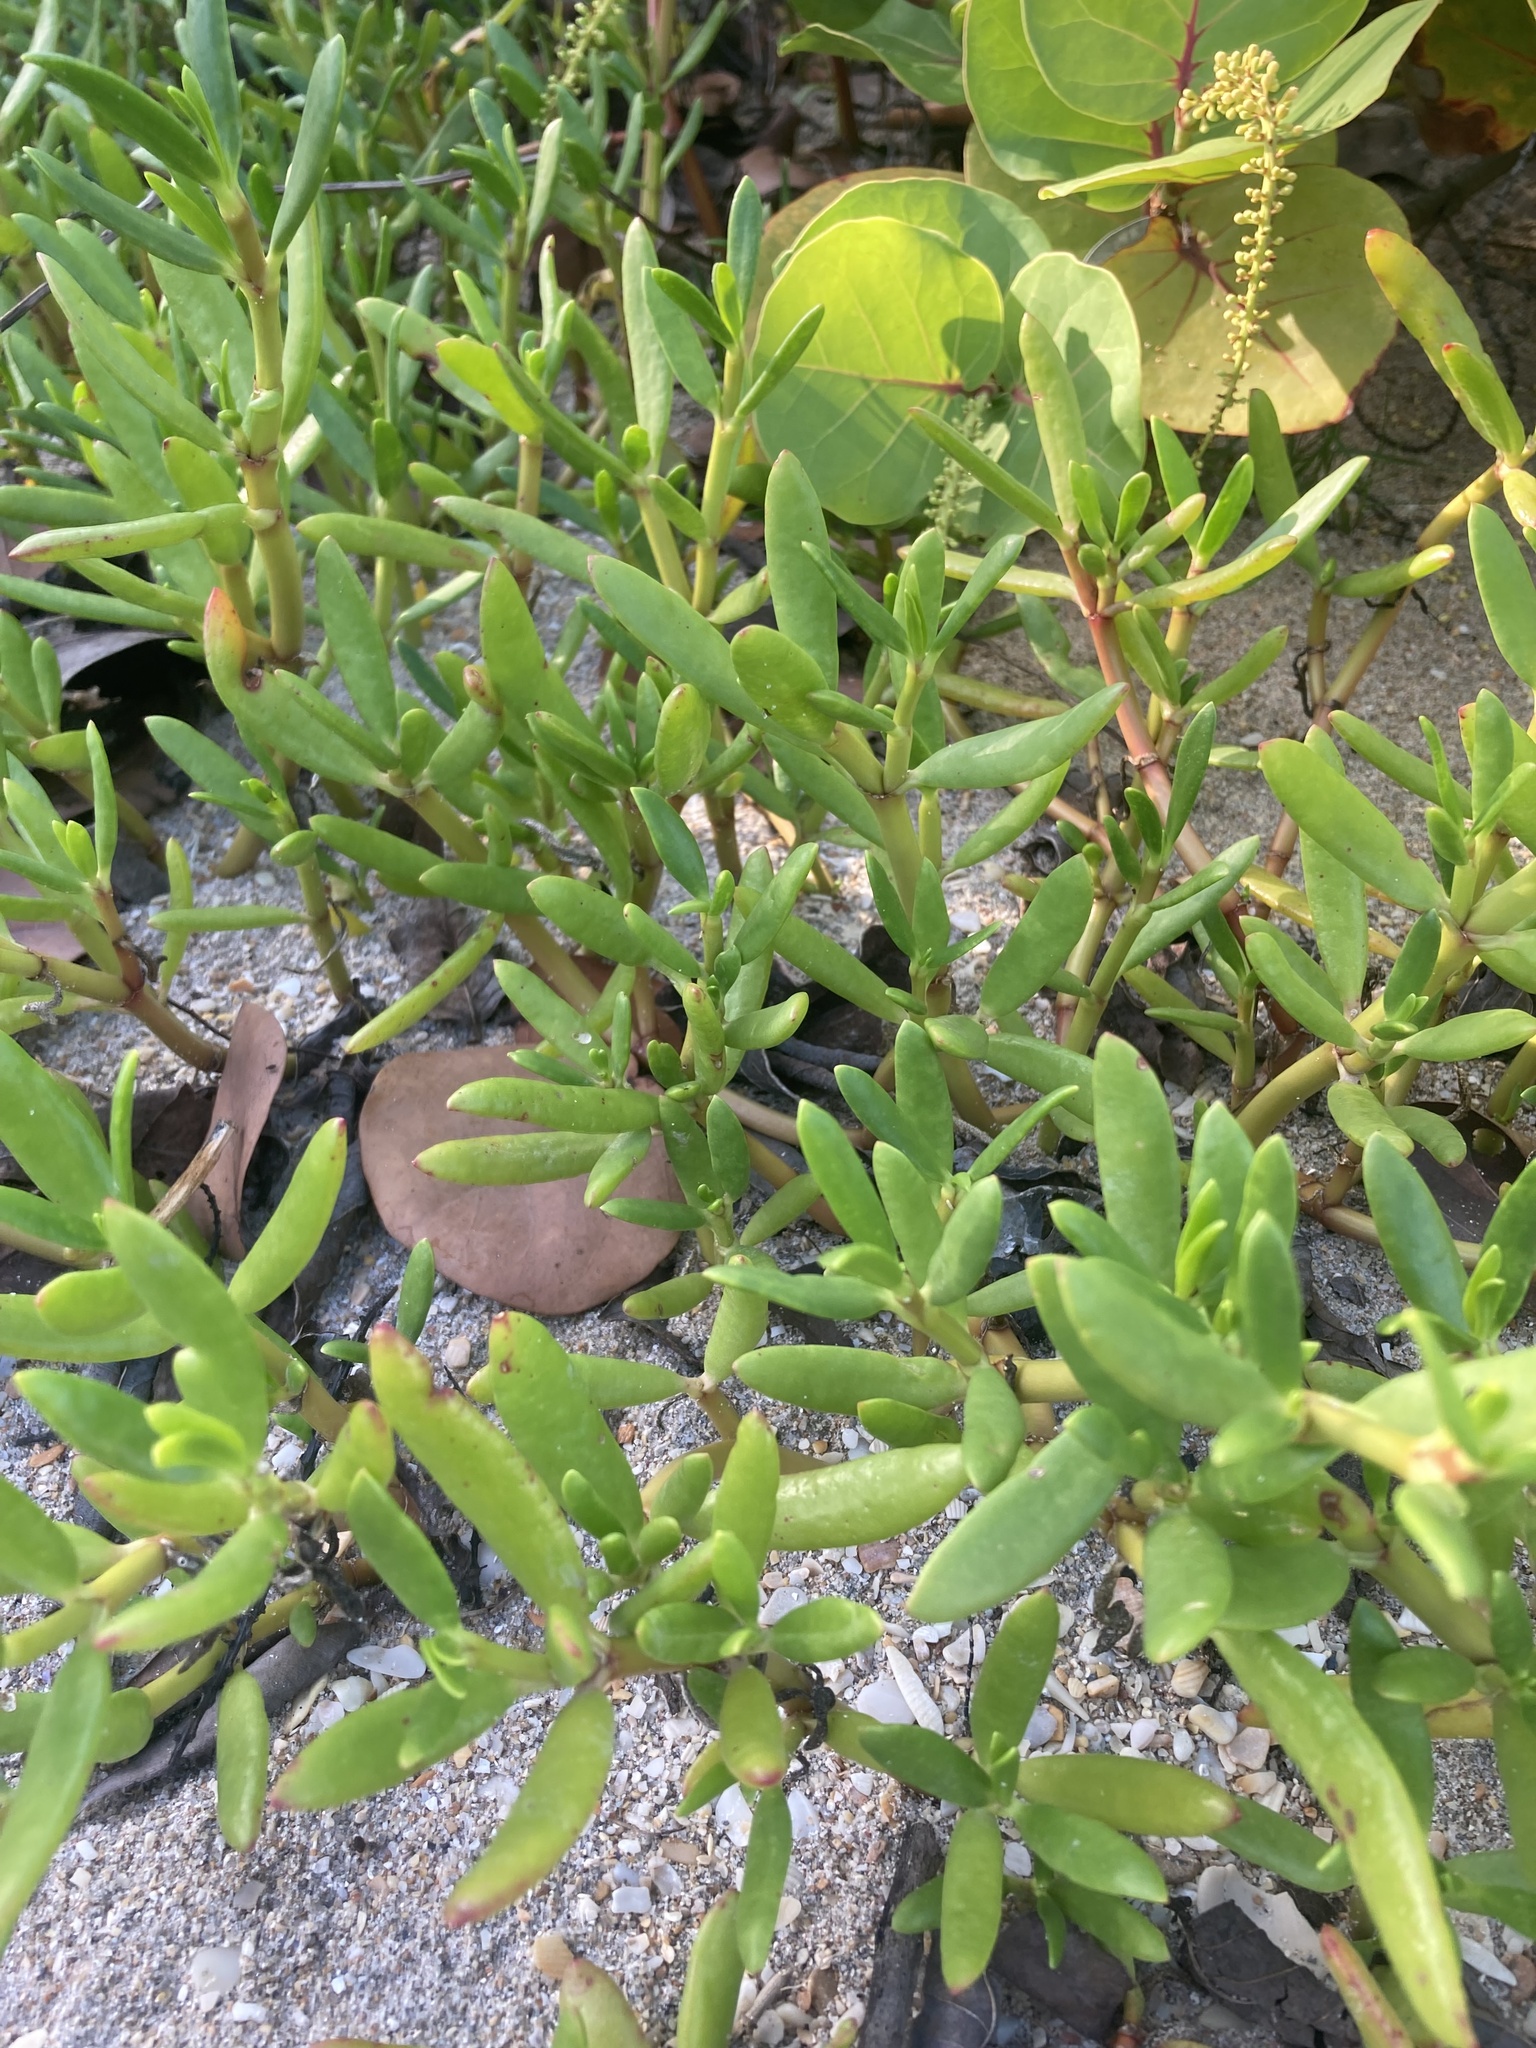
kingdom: Plantae
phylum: Tracheophyta
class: Magnoliopsida
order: Caryophyllales
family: Aizoaceae
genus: Sesuvium
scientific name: Sesuvium portulacastrum
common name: Sea-purslane
